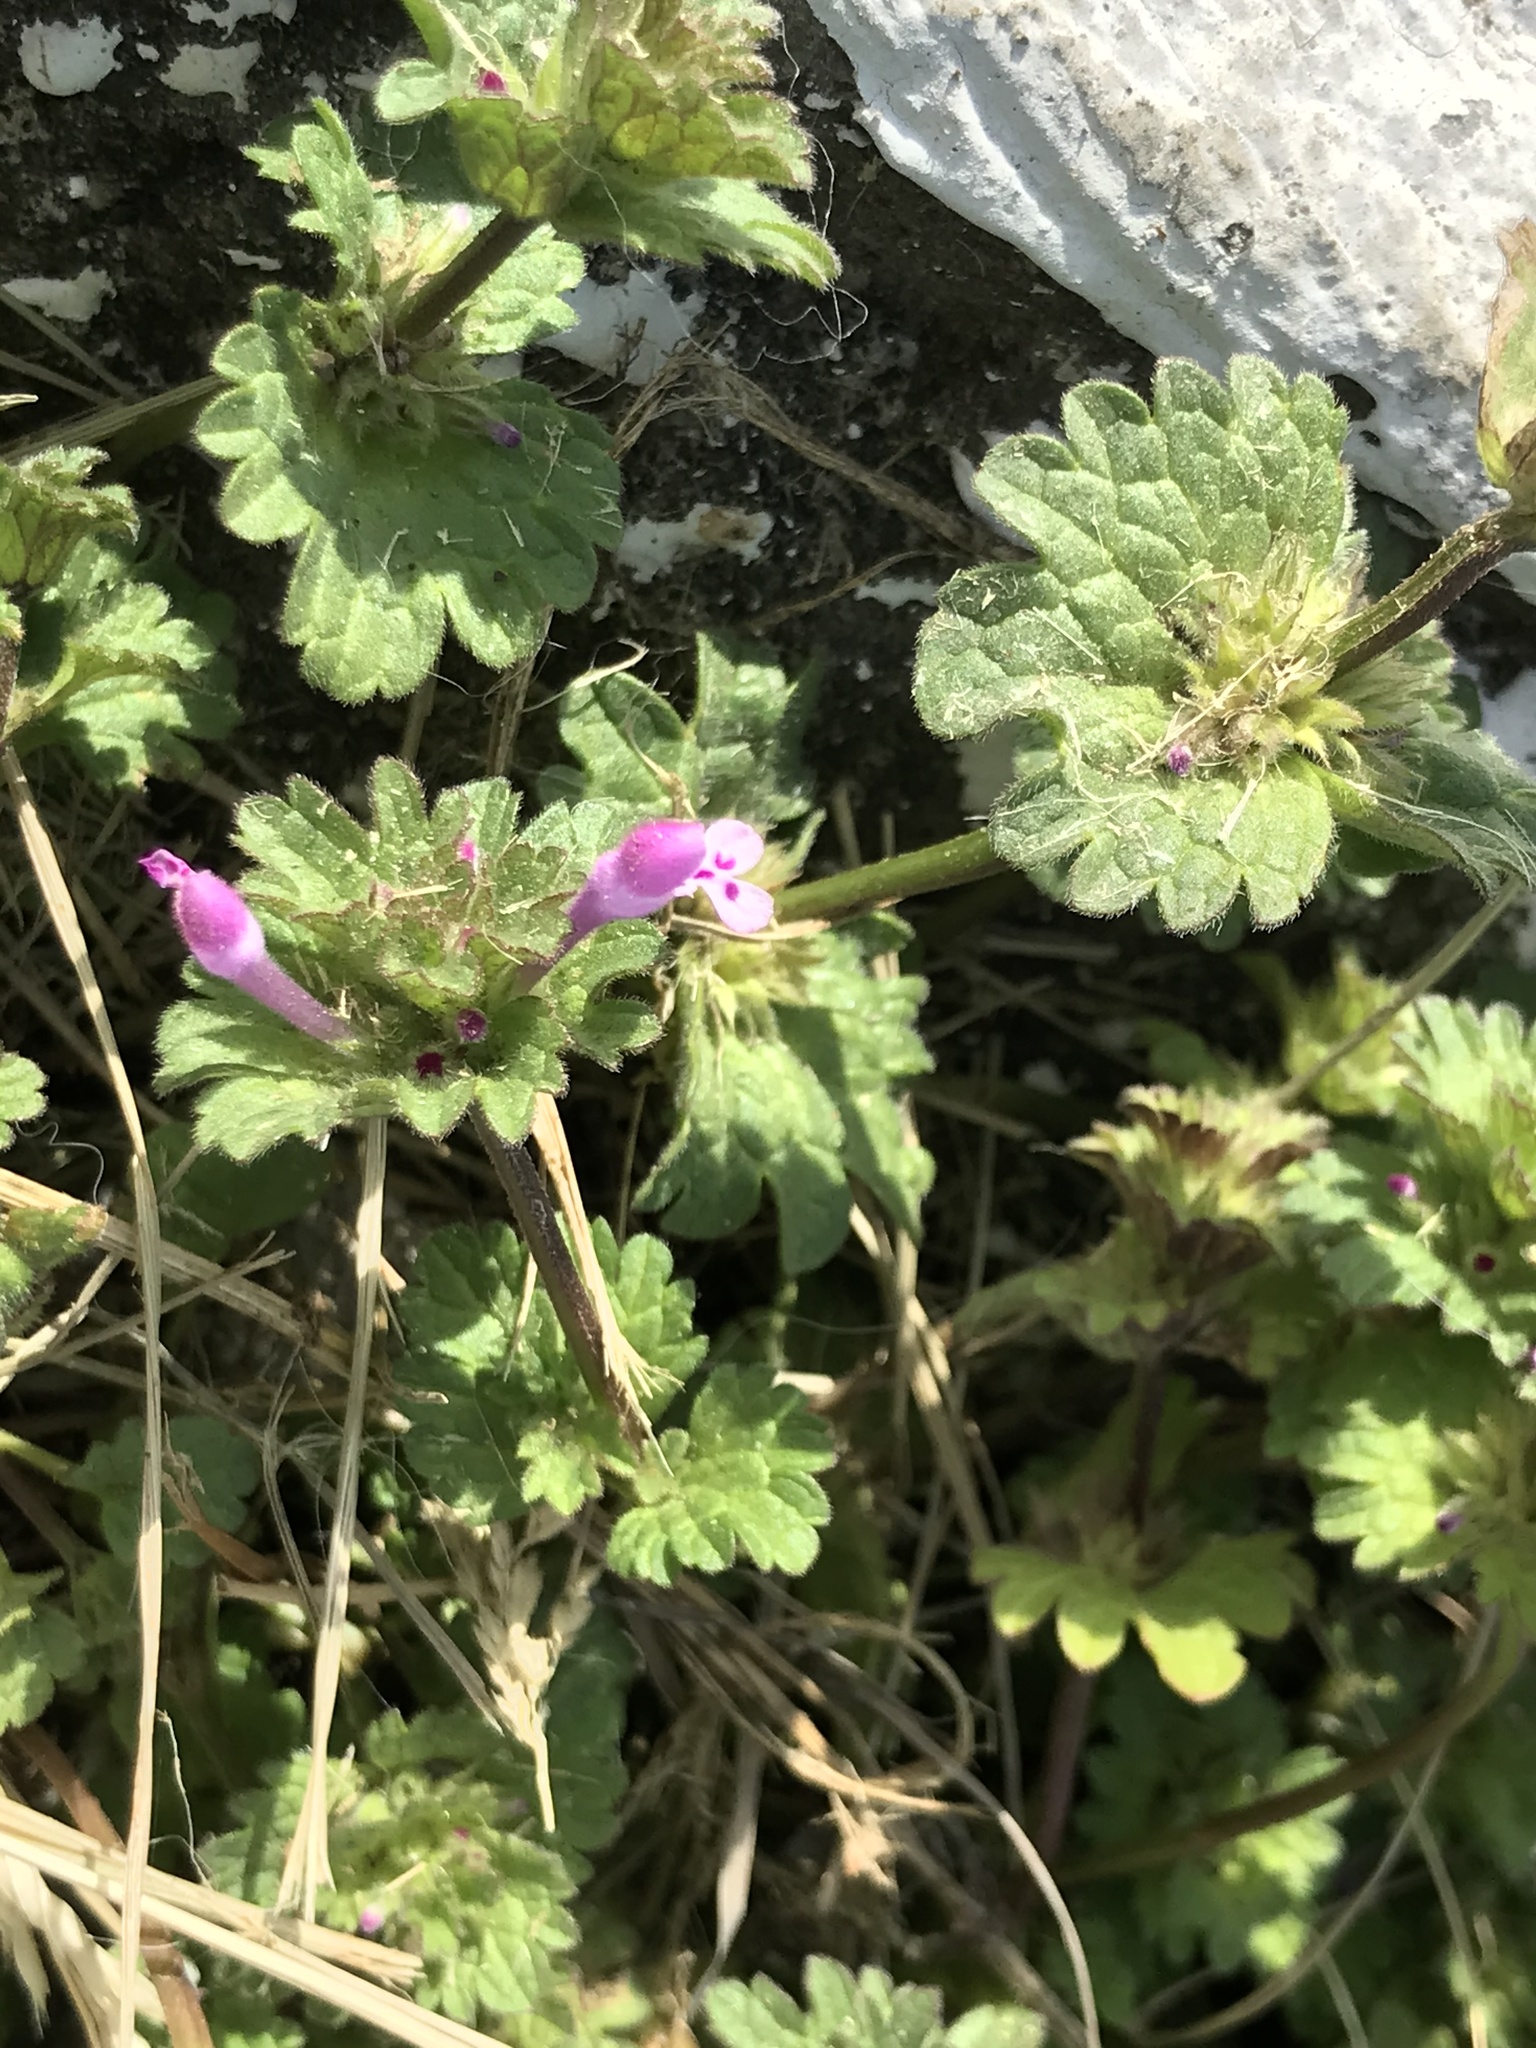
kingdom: Plantae
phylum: Tracheophyta
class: Magnoliopsida
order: Lamiales
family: Lamiaceae
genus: Lamium
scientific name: Lamium amplexicaule
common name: Henbit dead-nettle
